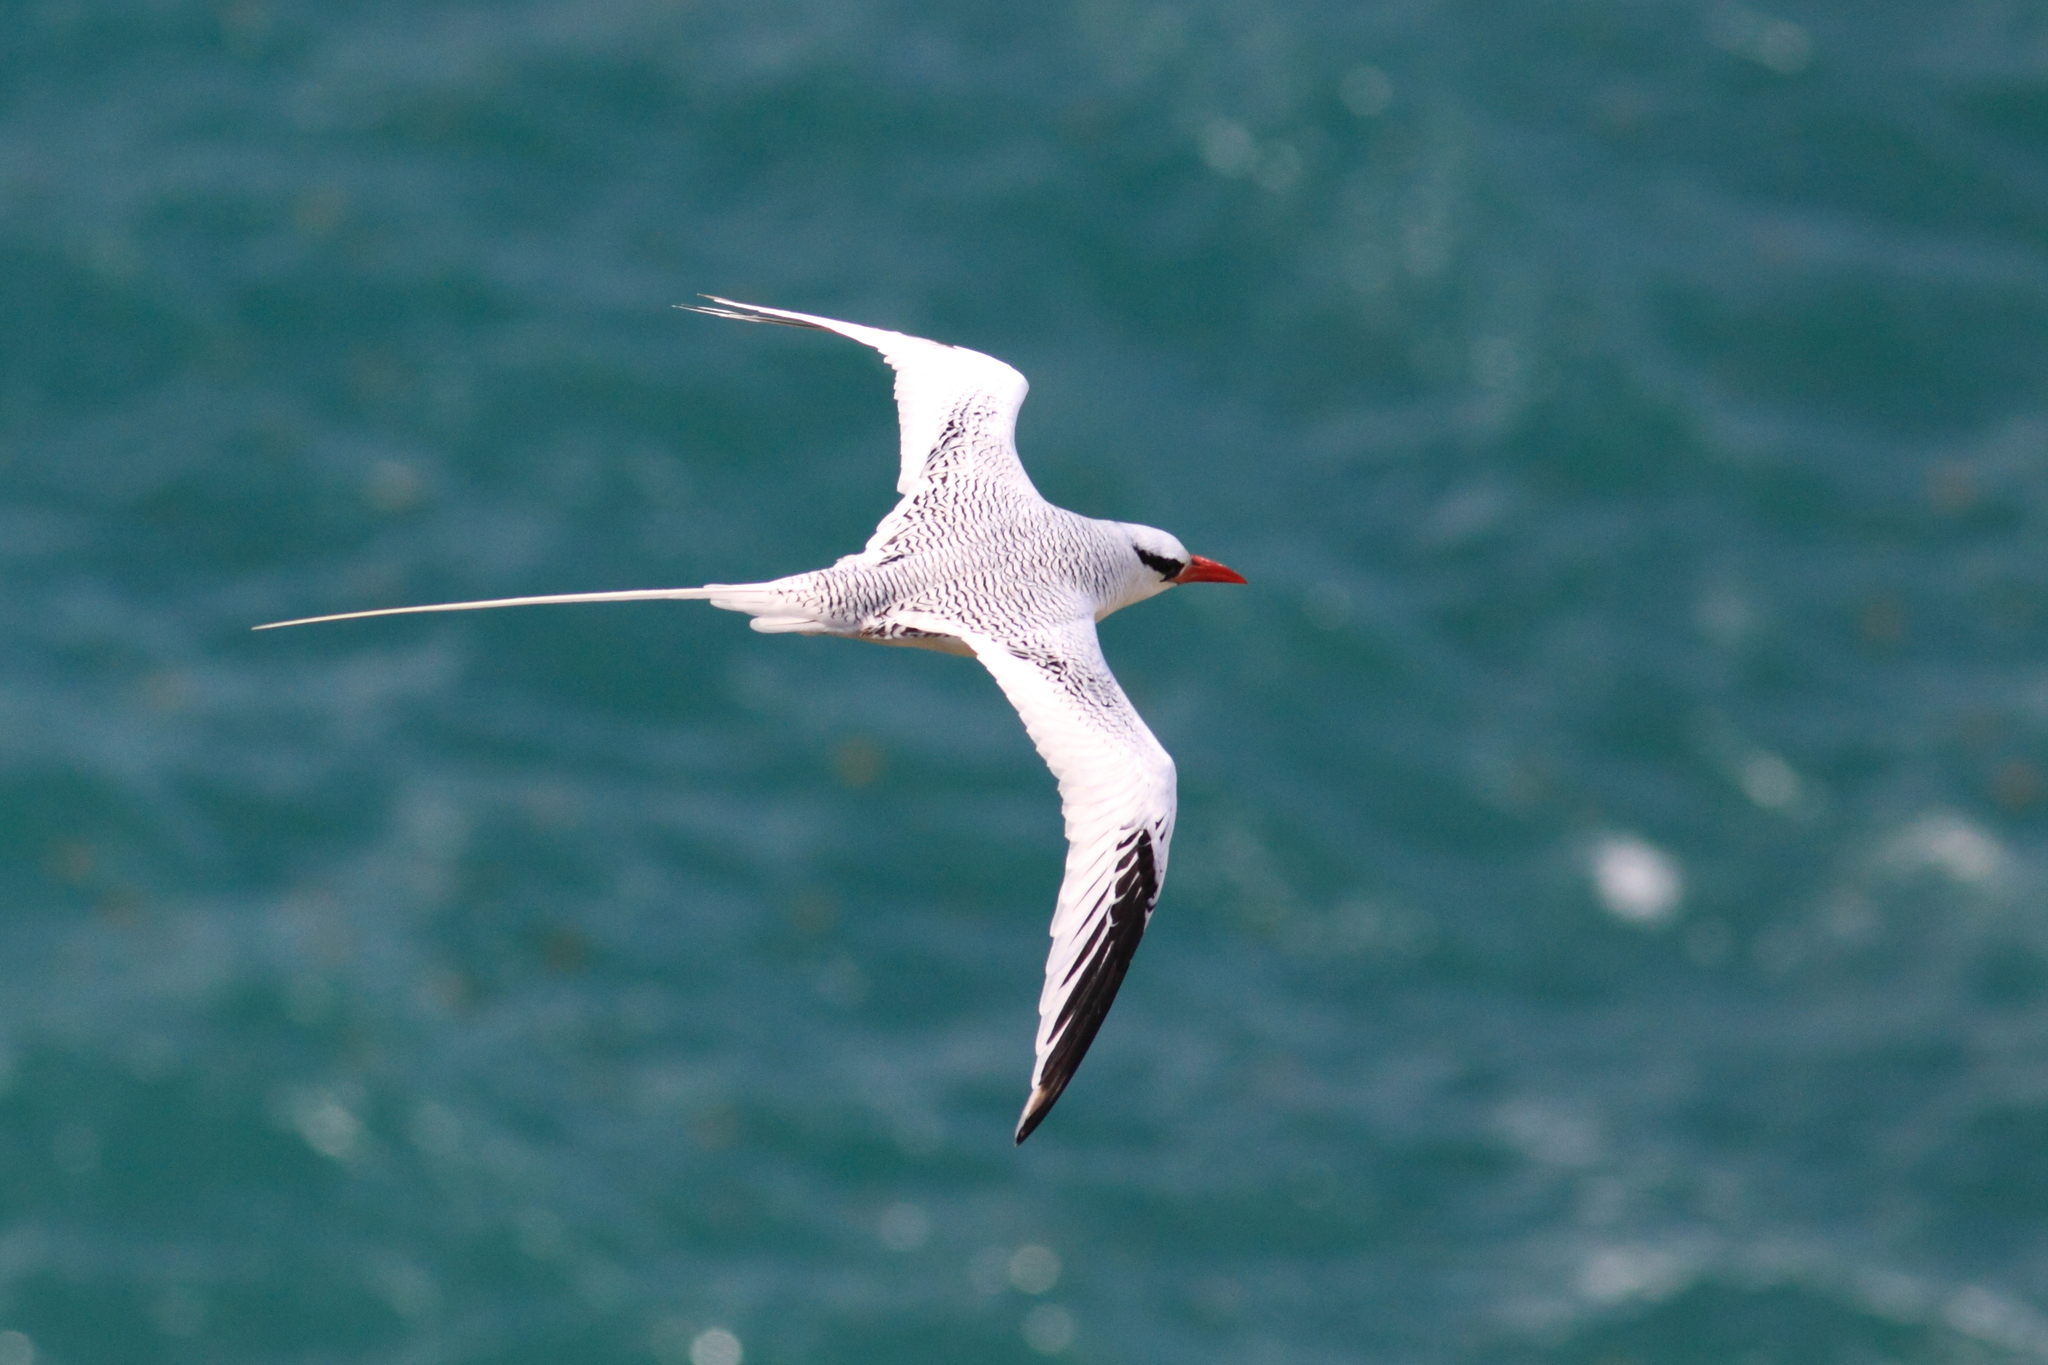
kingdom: Animalia
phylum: Chordata
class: Aves
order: Phaethontiformes
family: Phaethontidae
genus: Phaethon
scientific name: Phaethon aethereus
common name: Red-billed tropicbird
